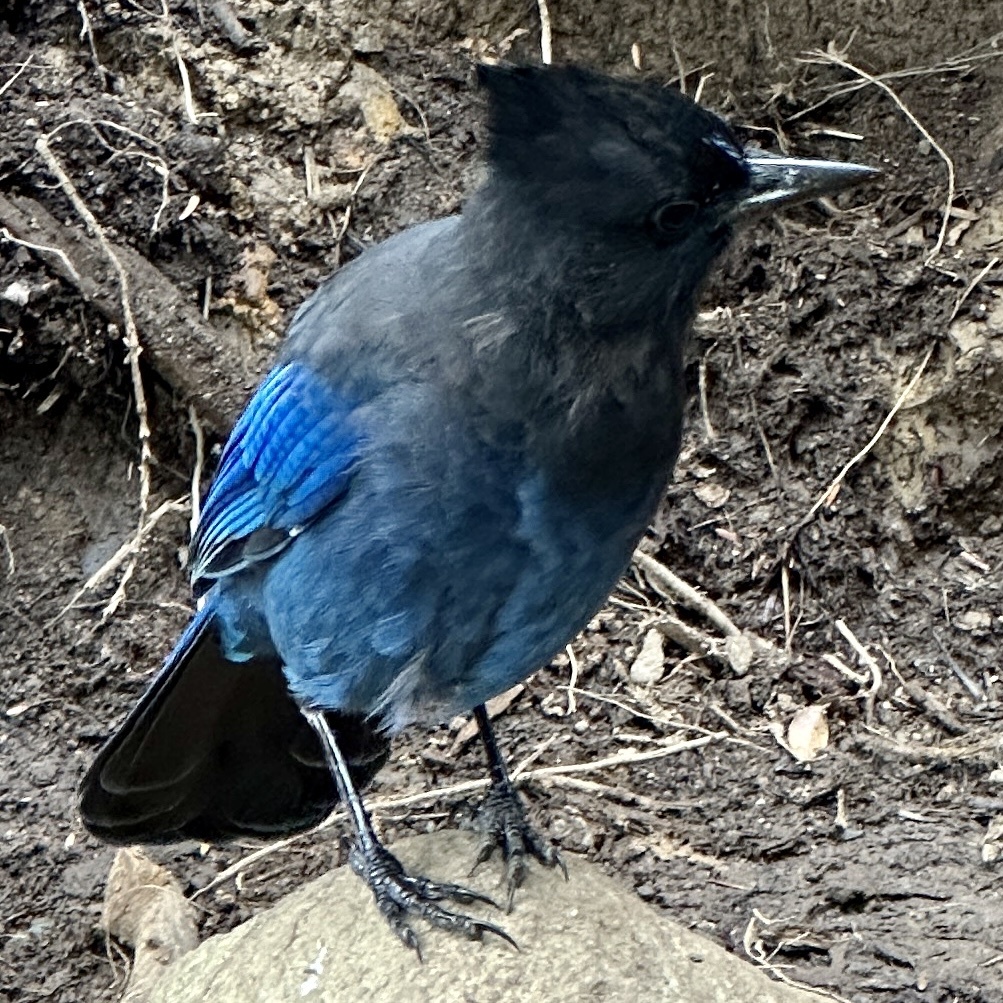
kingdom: Animalia
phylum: Chordata
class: Aves
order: Passeriformes
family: Corvidae
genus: Cyanocitta
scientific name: Cyanocitta stelleri
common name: Steller's jay
